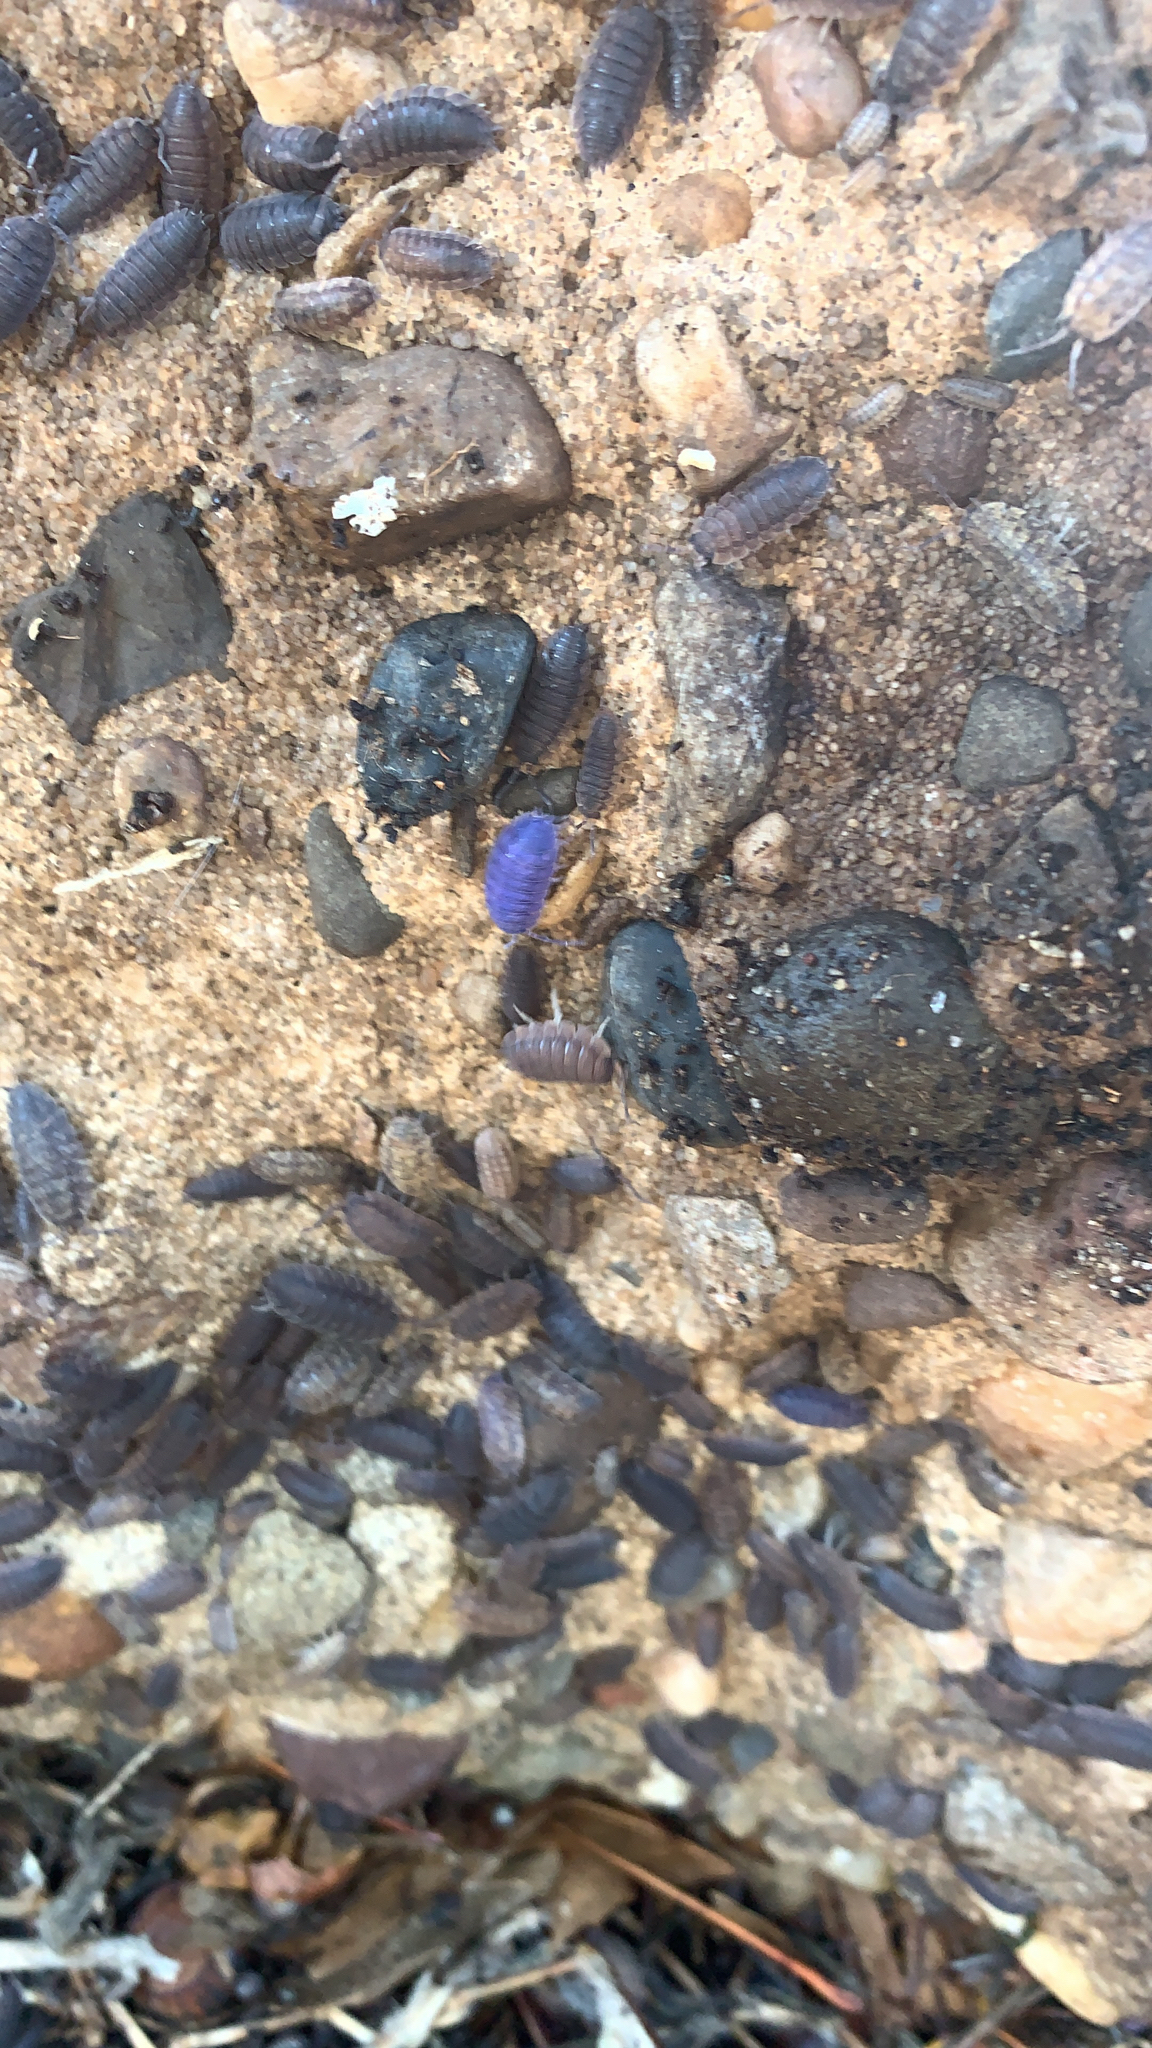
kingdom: Viruses
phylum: Nucleocytoviricota
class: Megaviricetes
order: Pimascovirales
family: Iridoviridae
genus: Iridovirus
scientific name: Iridovirus Invertebrate iridescent virus 31
